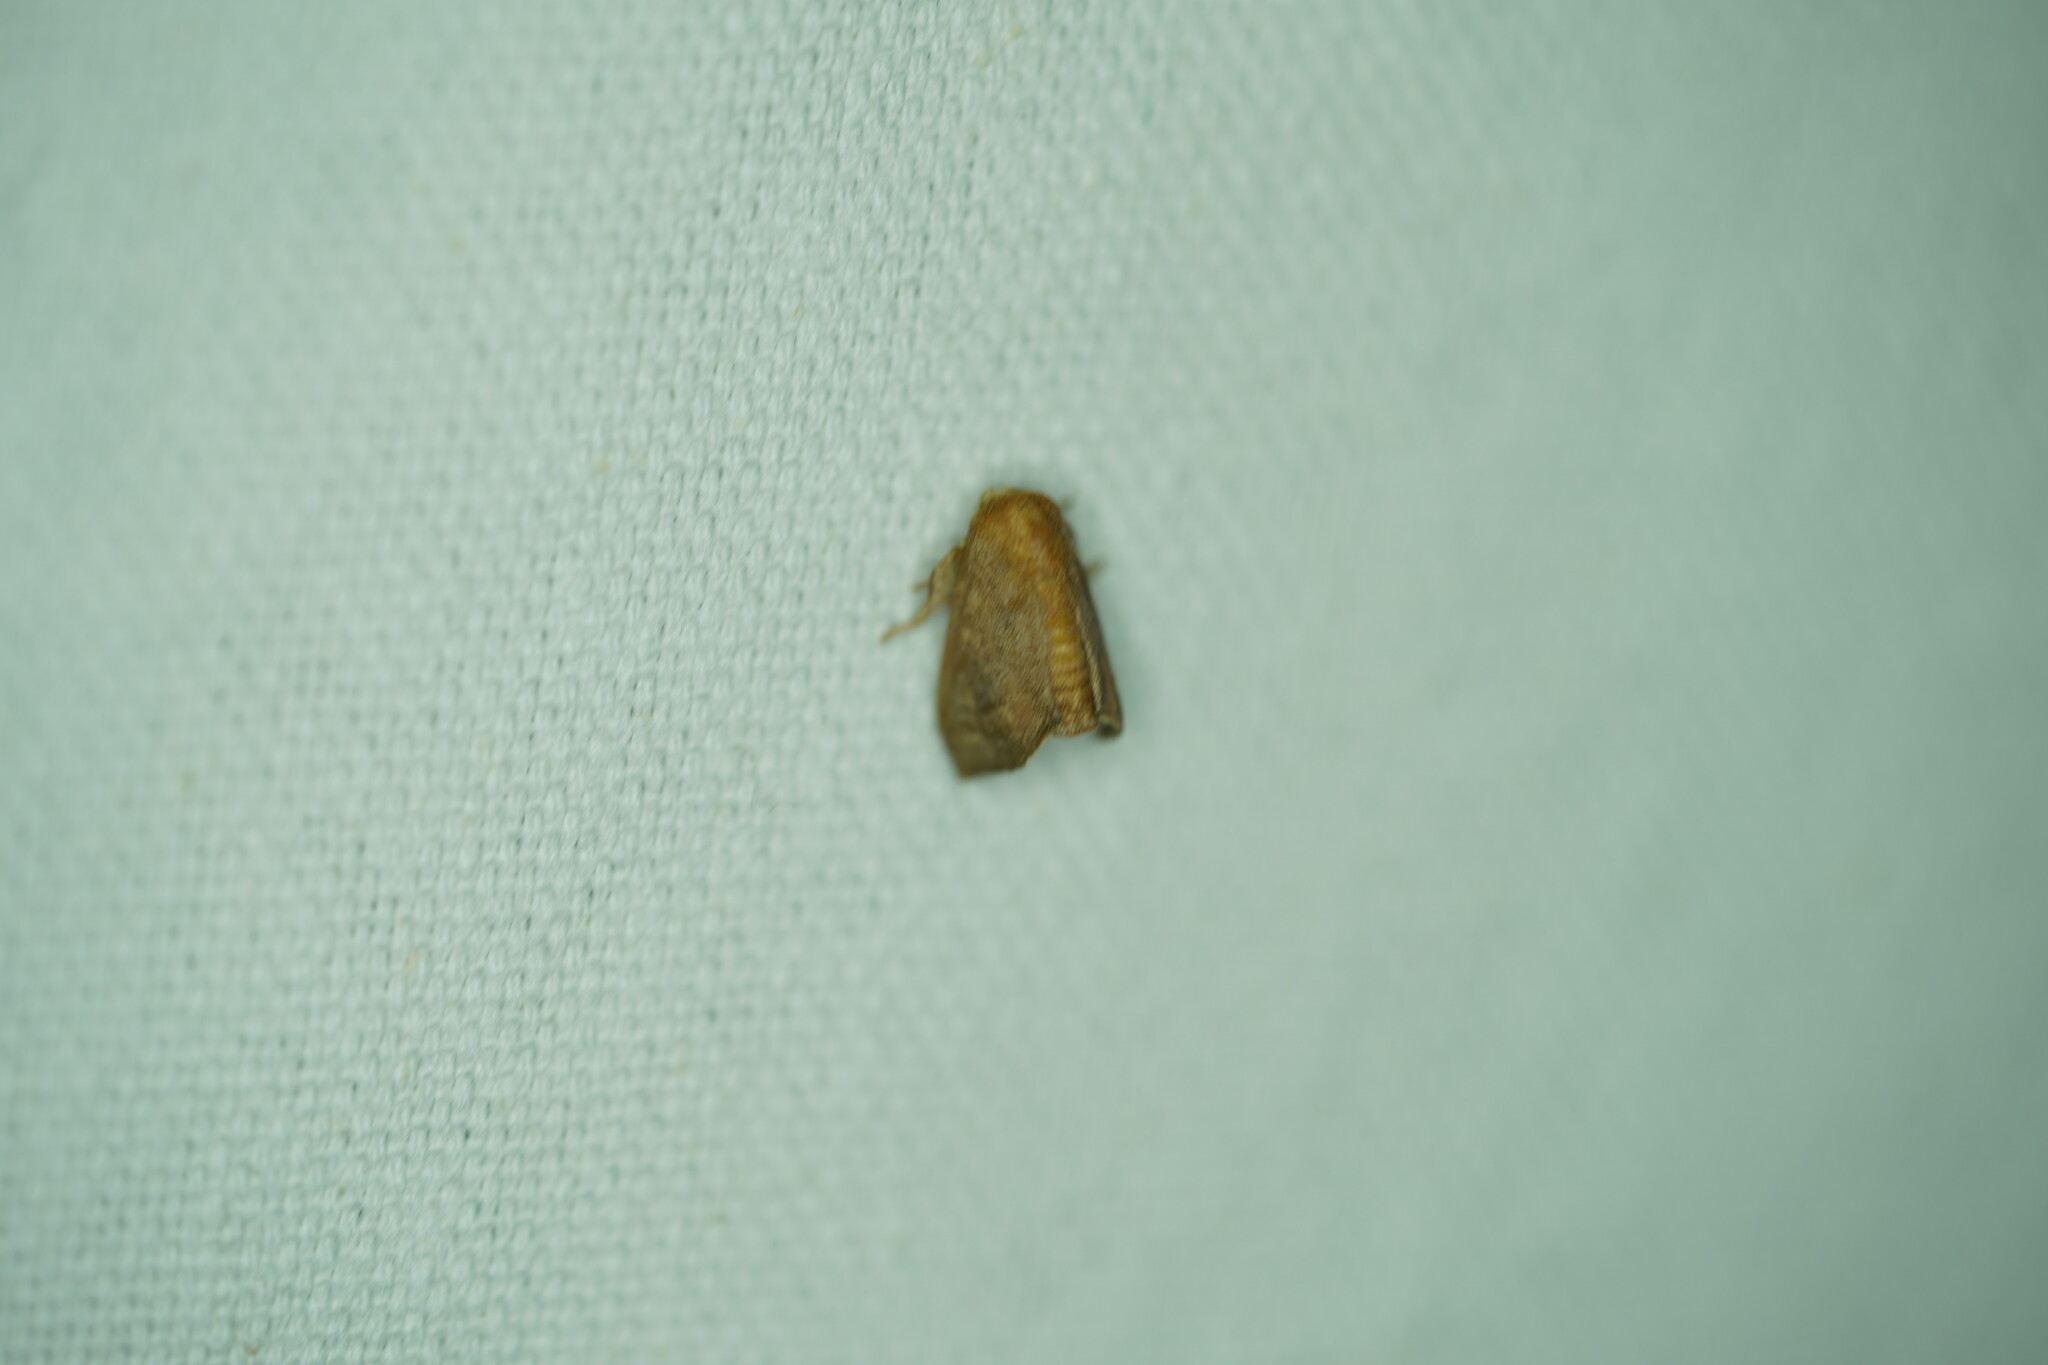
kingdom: Animalia
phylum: Arthropoda
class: Insecta
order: Lepidoptera
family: Limacodidae
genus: Isa
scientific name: Isa textula
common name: Crowned slug moth
